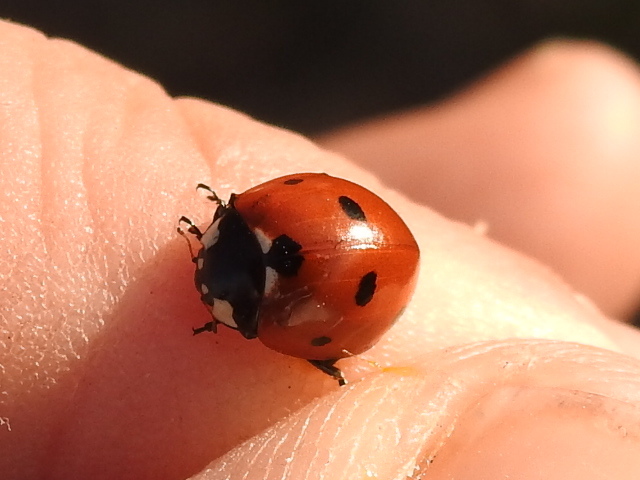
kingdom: Animalia
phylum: Arthropoda
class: Insecta
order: Coleoptera
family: Coccinellidae
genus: Coccinella
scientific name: Coccinella septempunctata
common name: Sevenspotted lady beetle
